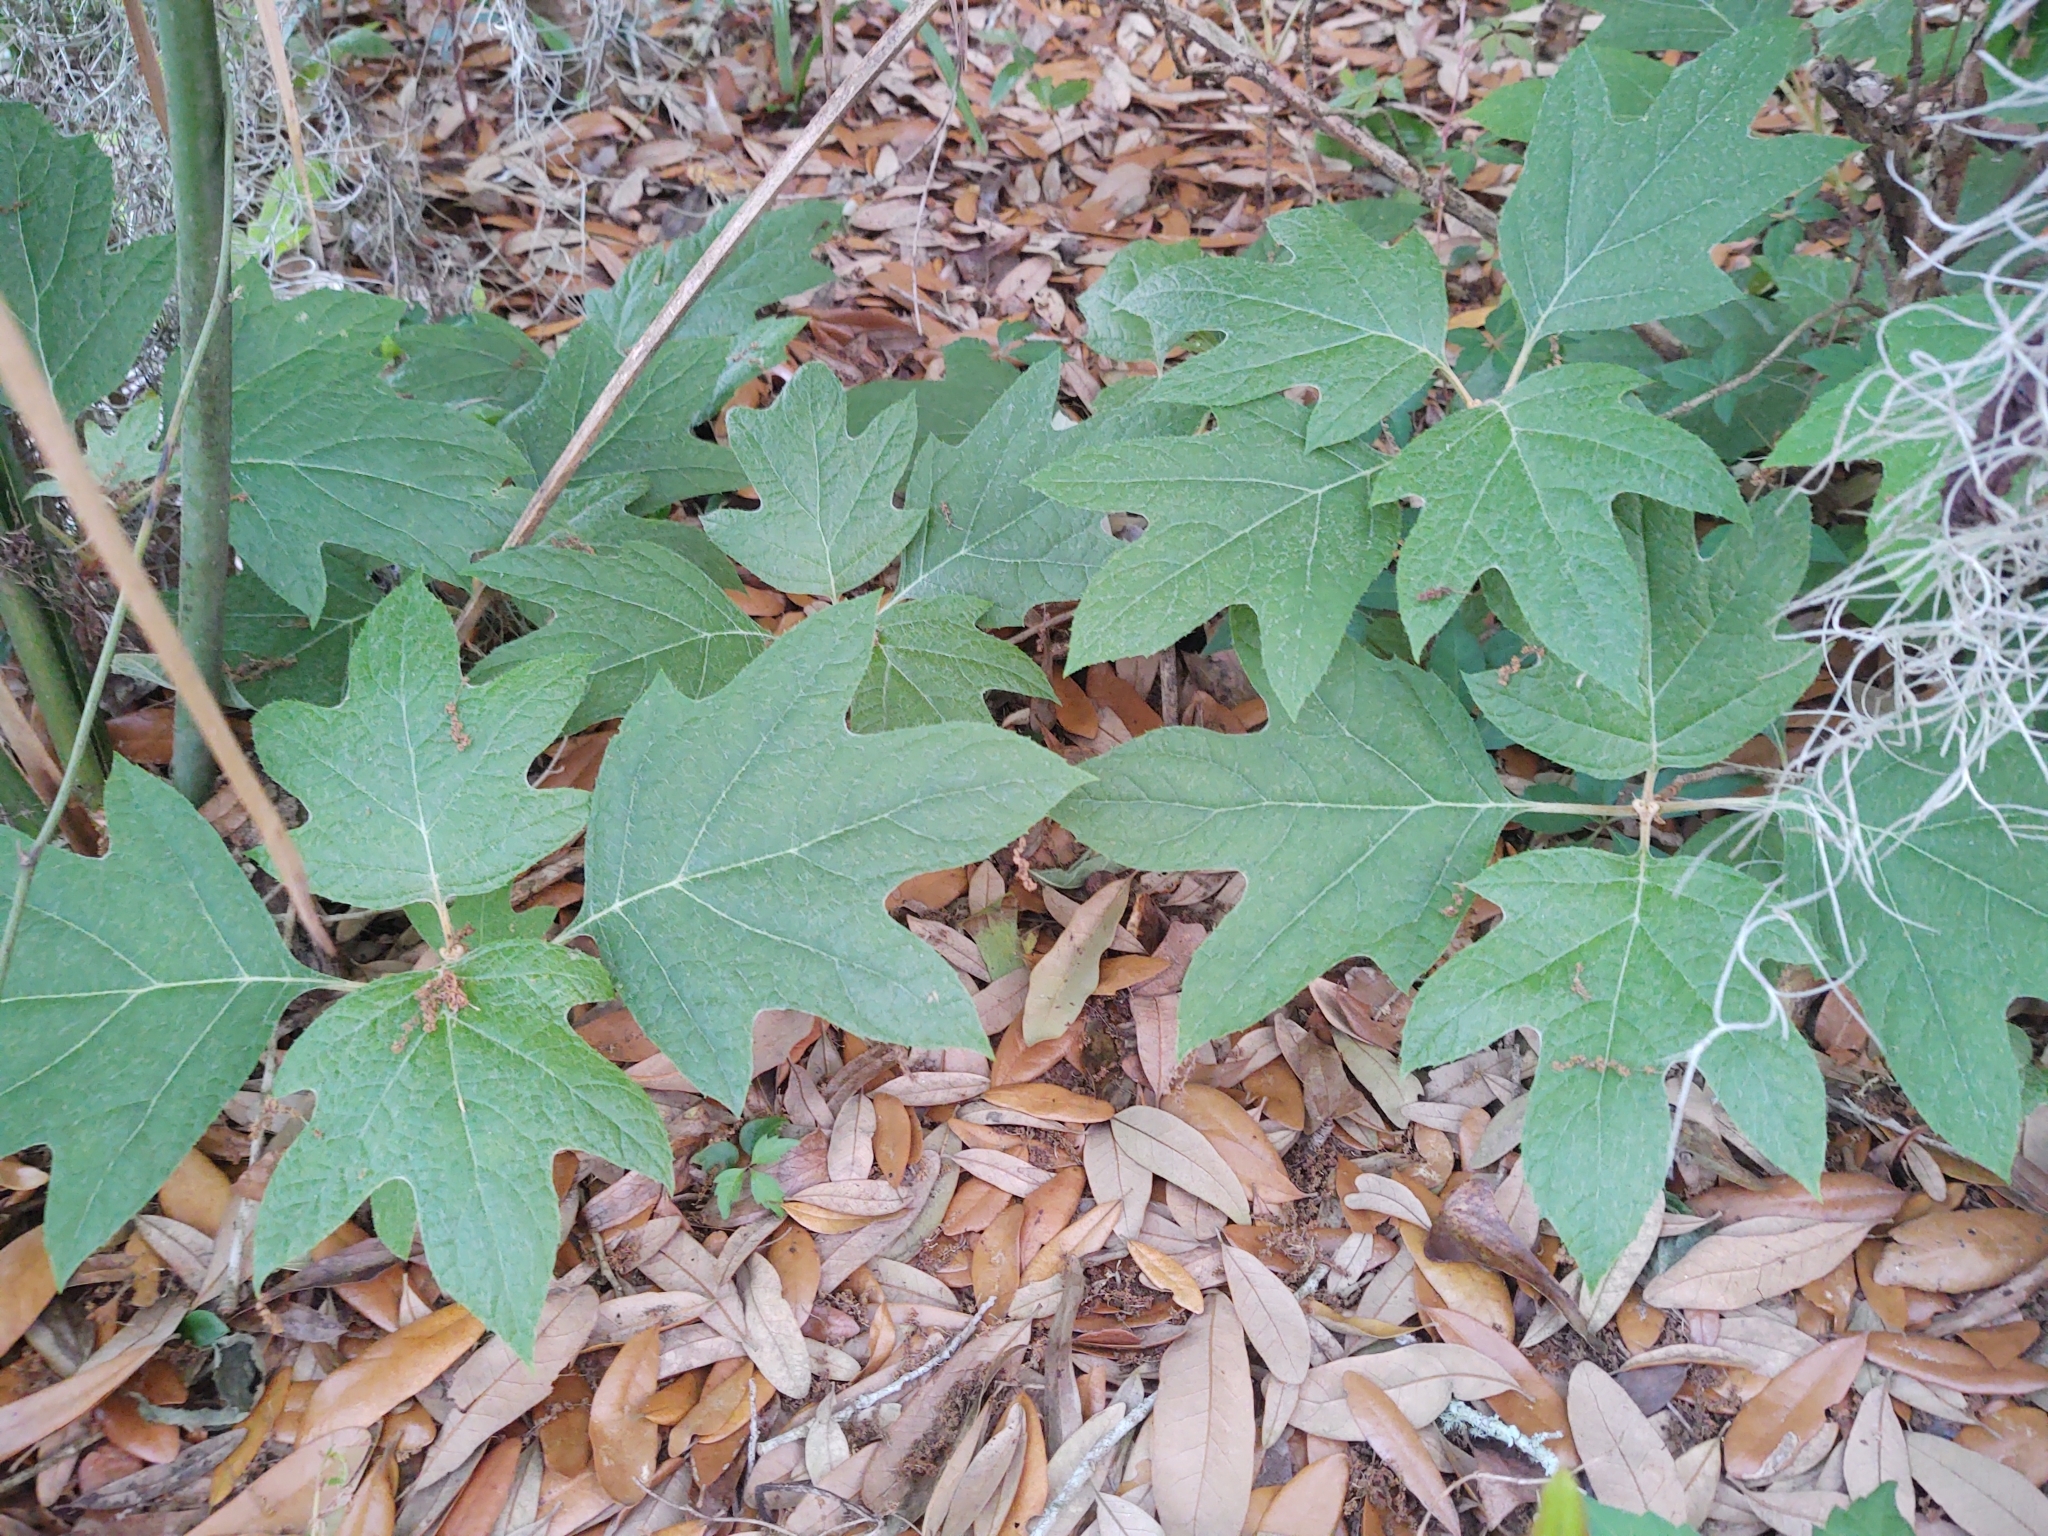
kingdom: Plantae
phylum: Tracheophyta
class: Magnoliopsida
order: Cornales
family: Hydrangeaceae
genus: Hydrangea
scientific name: Hydrangea quercifolia
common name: Oak-leaf hydrangea
